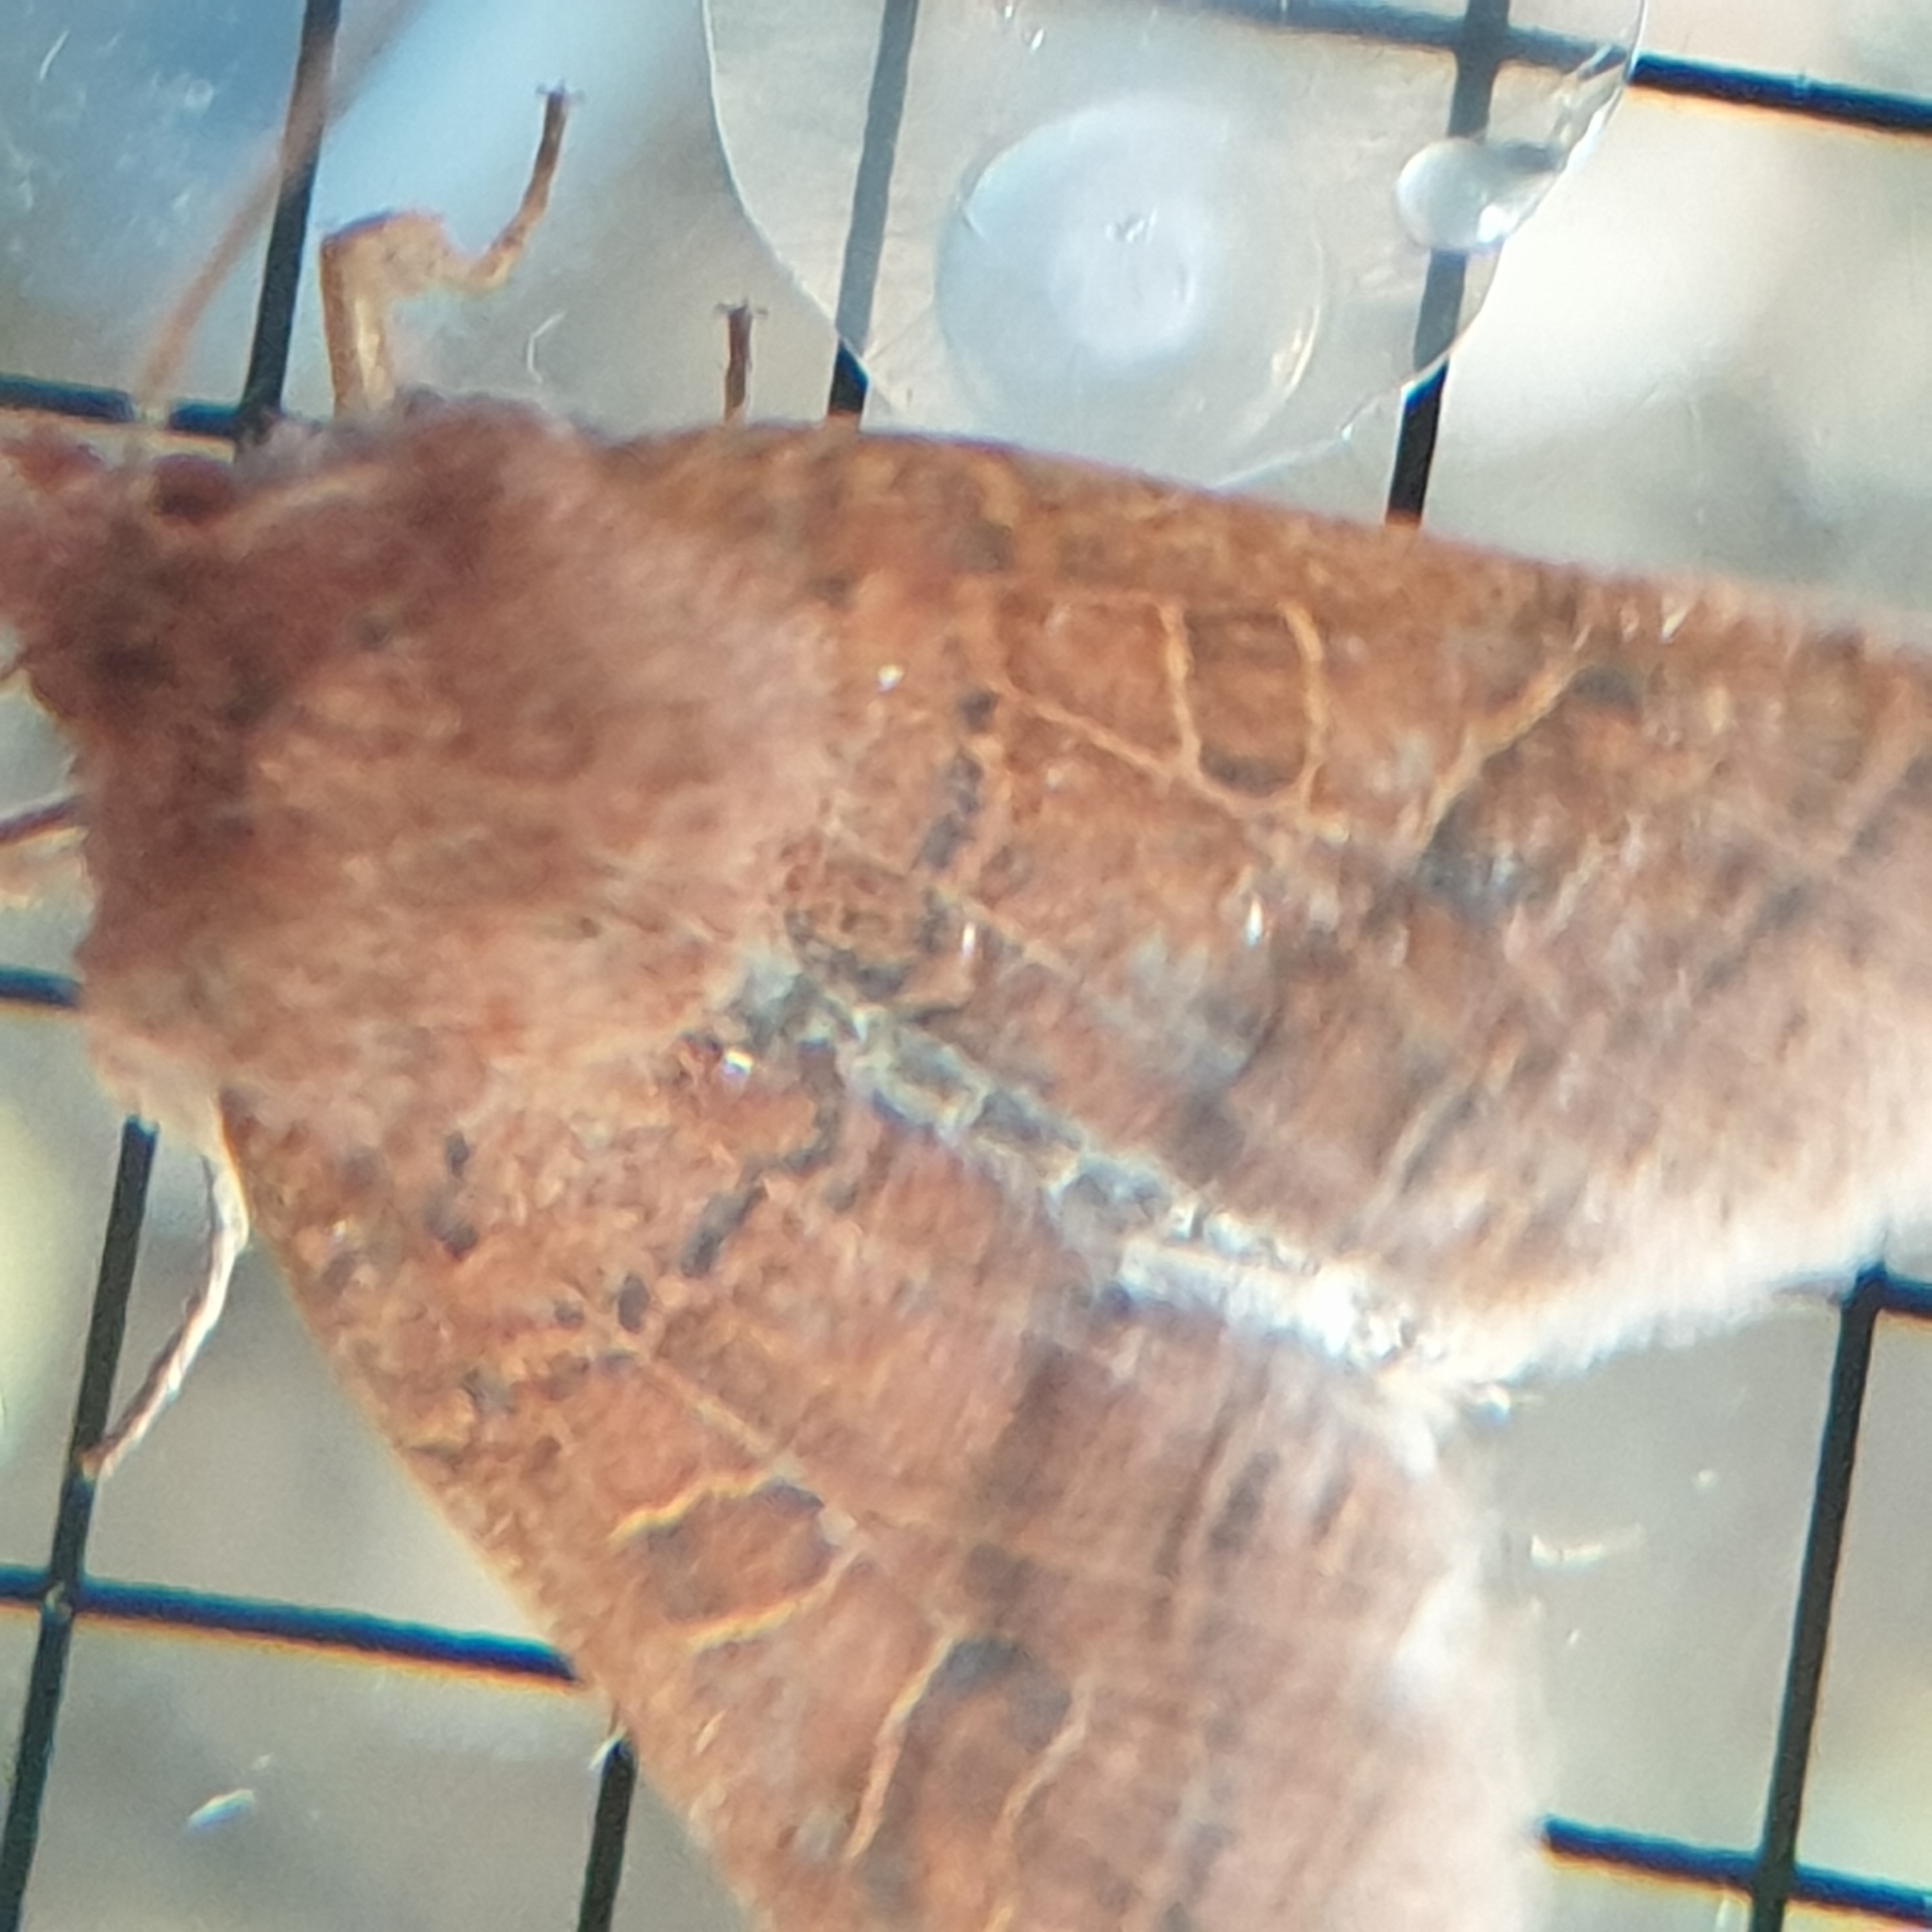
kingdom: Animalia
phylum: Arthropoda
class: Insecta
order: Lepidoptera
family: Noctuidae
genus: Agrochola
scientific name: Agrochola nitida
